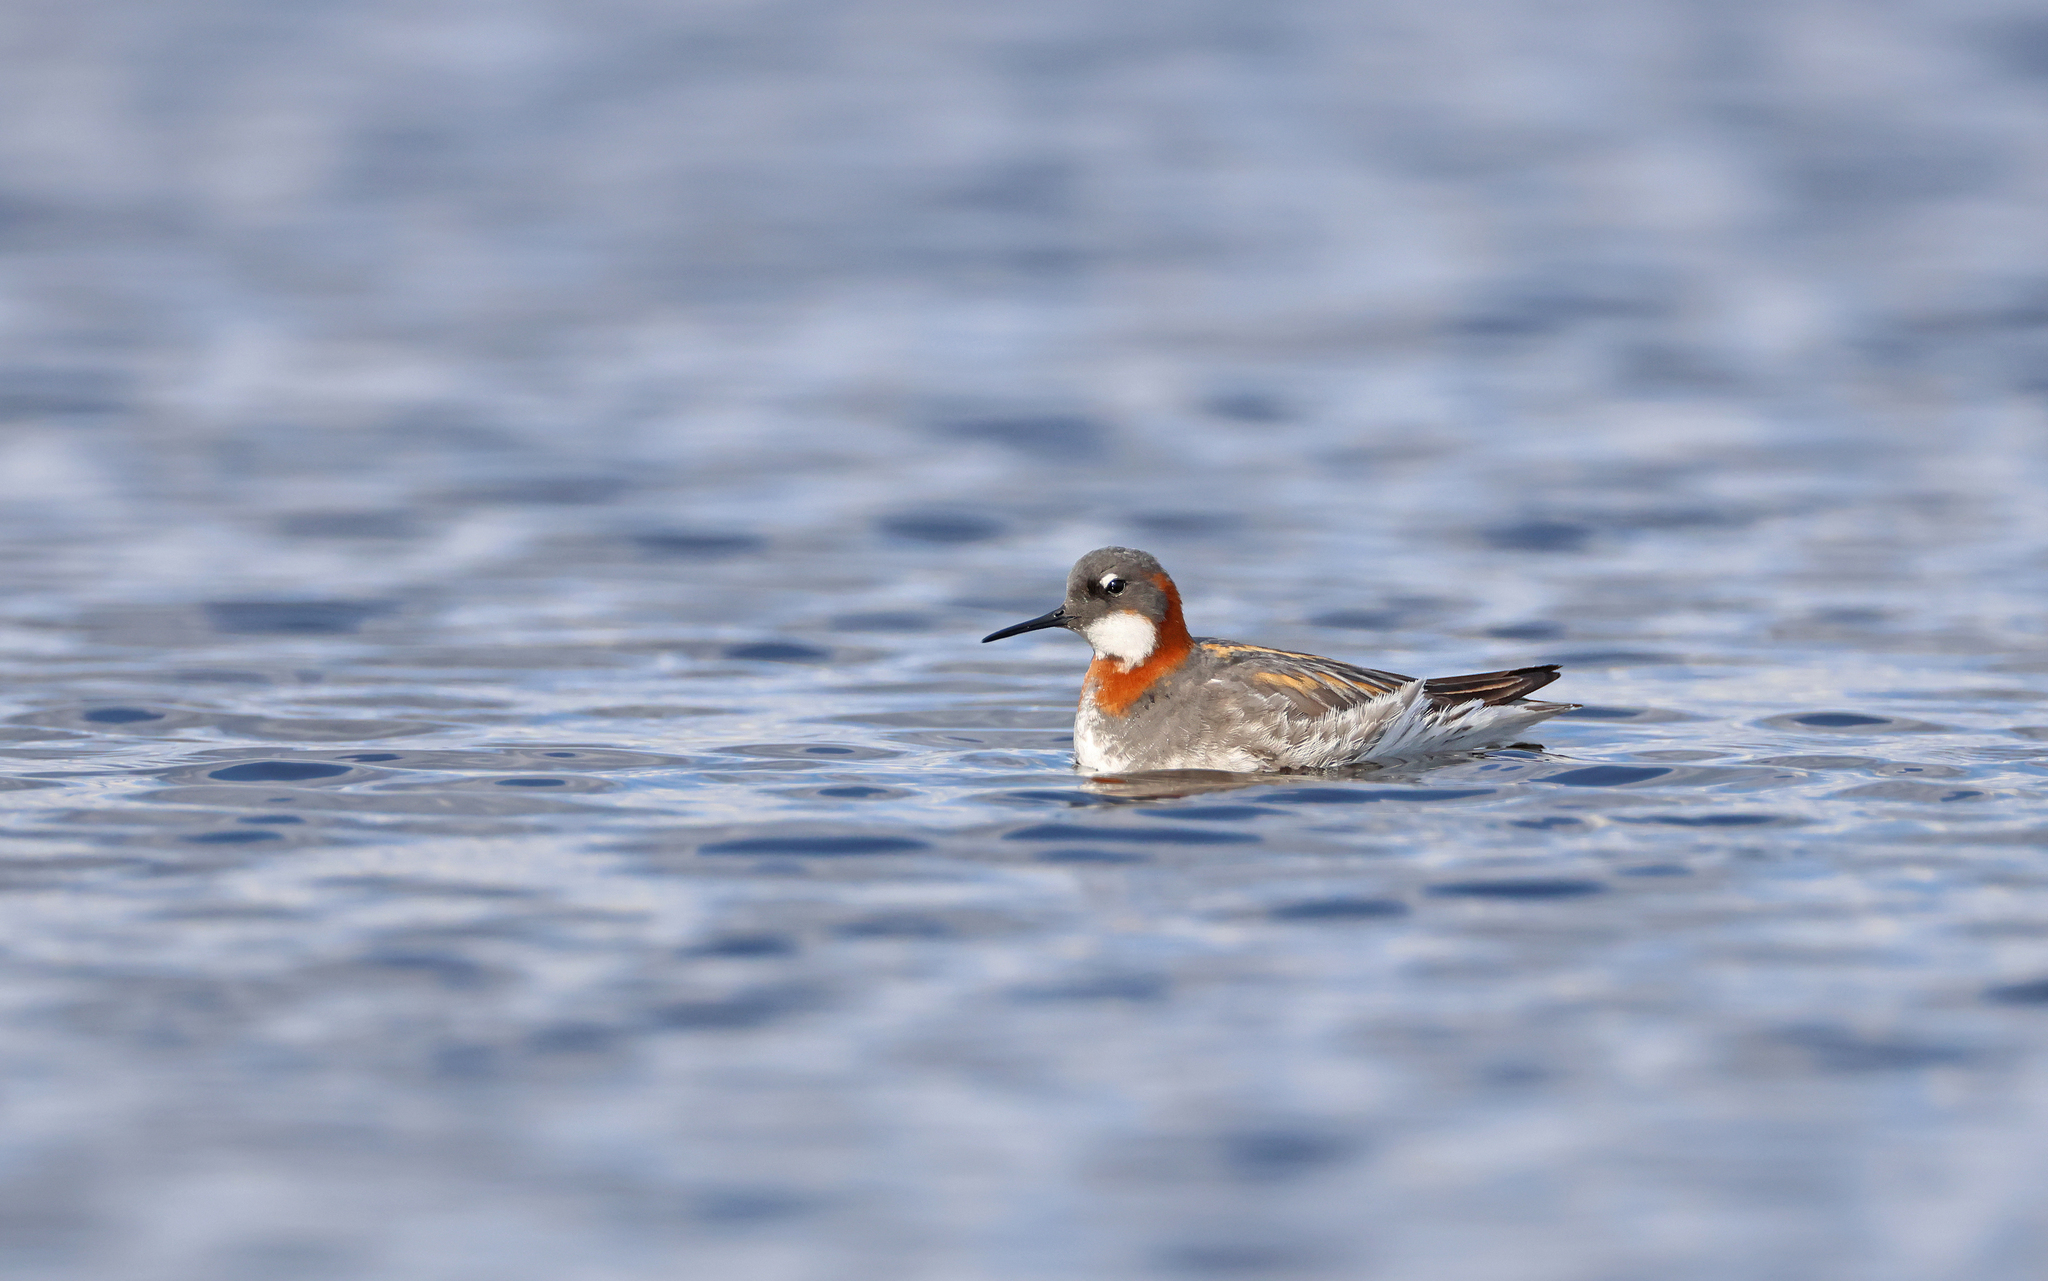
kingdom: Animalia
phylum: Chordata
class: Aves
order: Charadriiformes
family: Scolopacidae
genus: Phalaropus
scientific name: Phalaropus lobatus
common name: Red-necked phalarope
